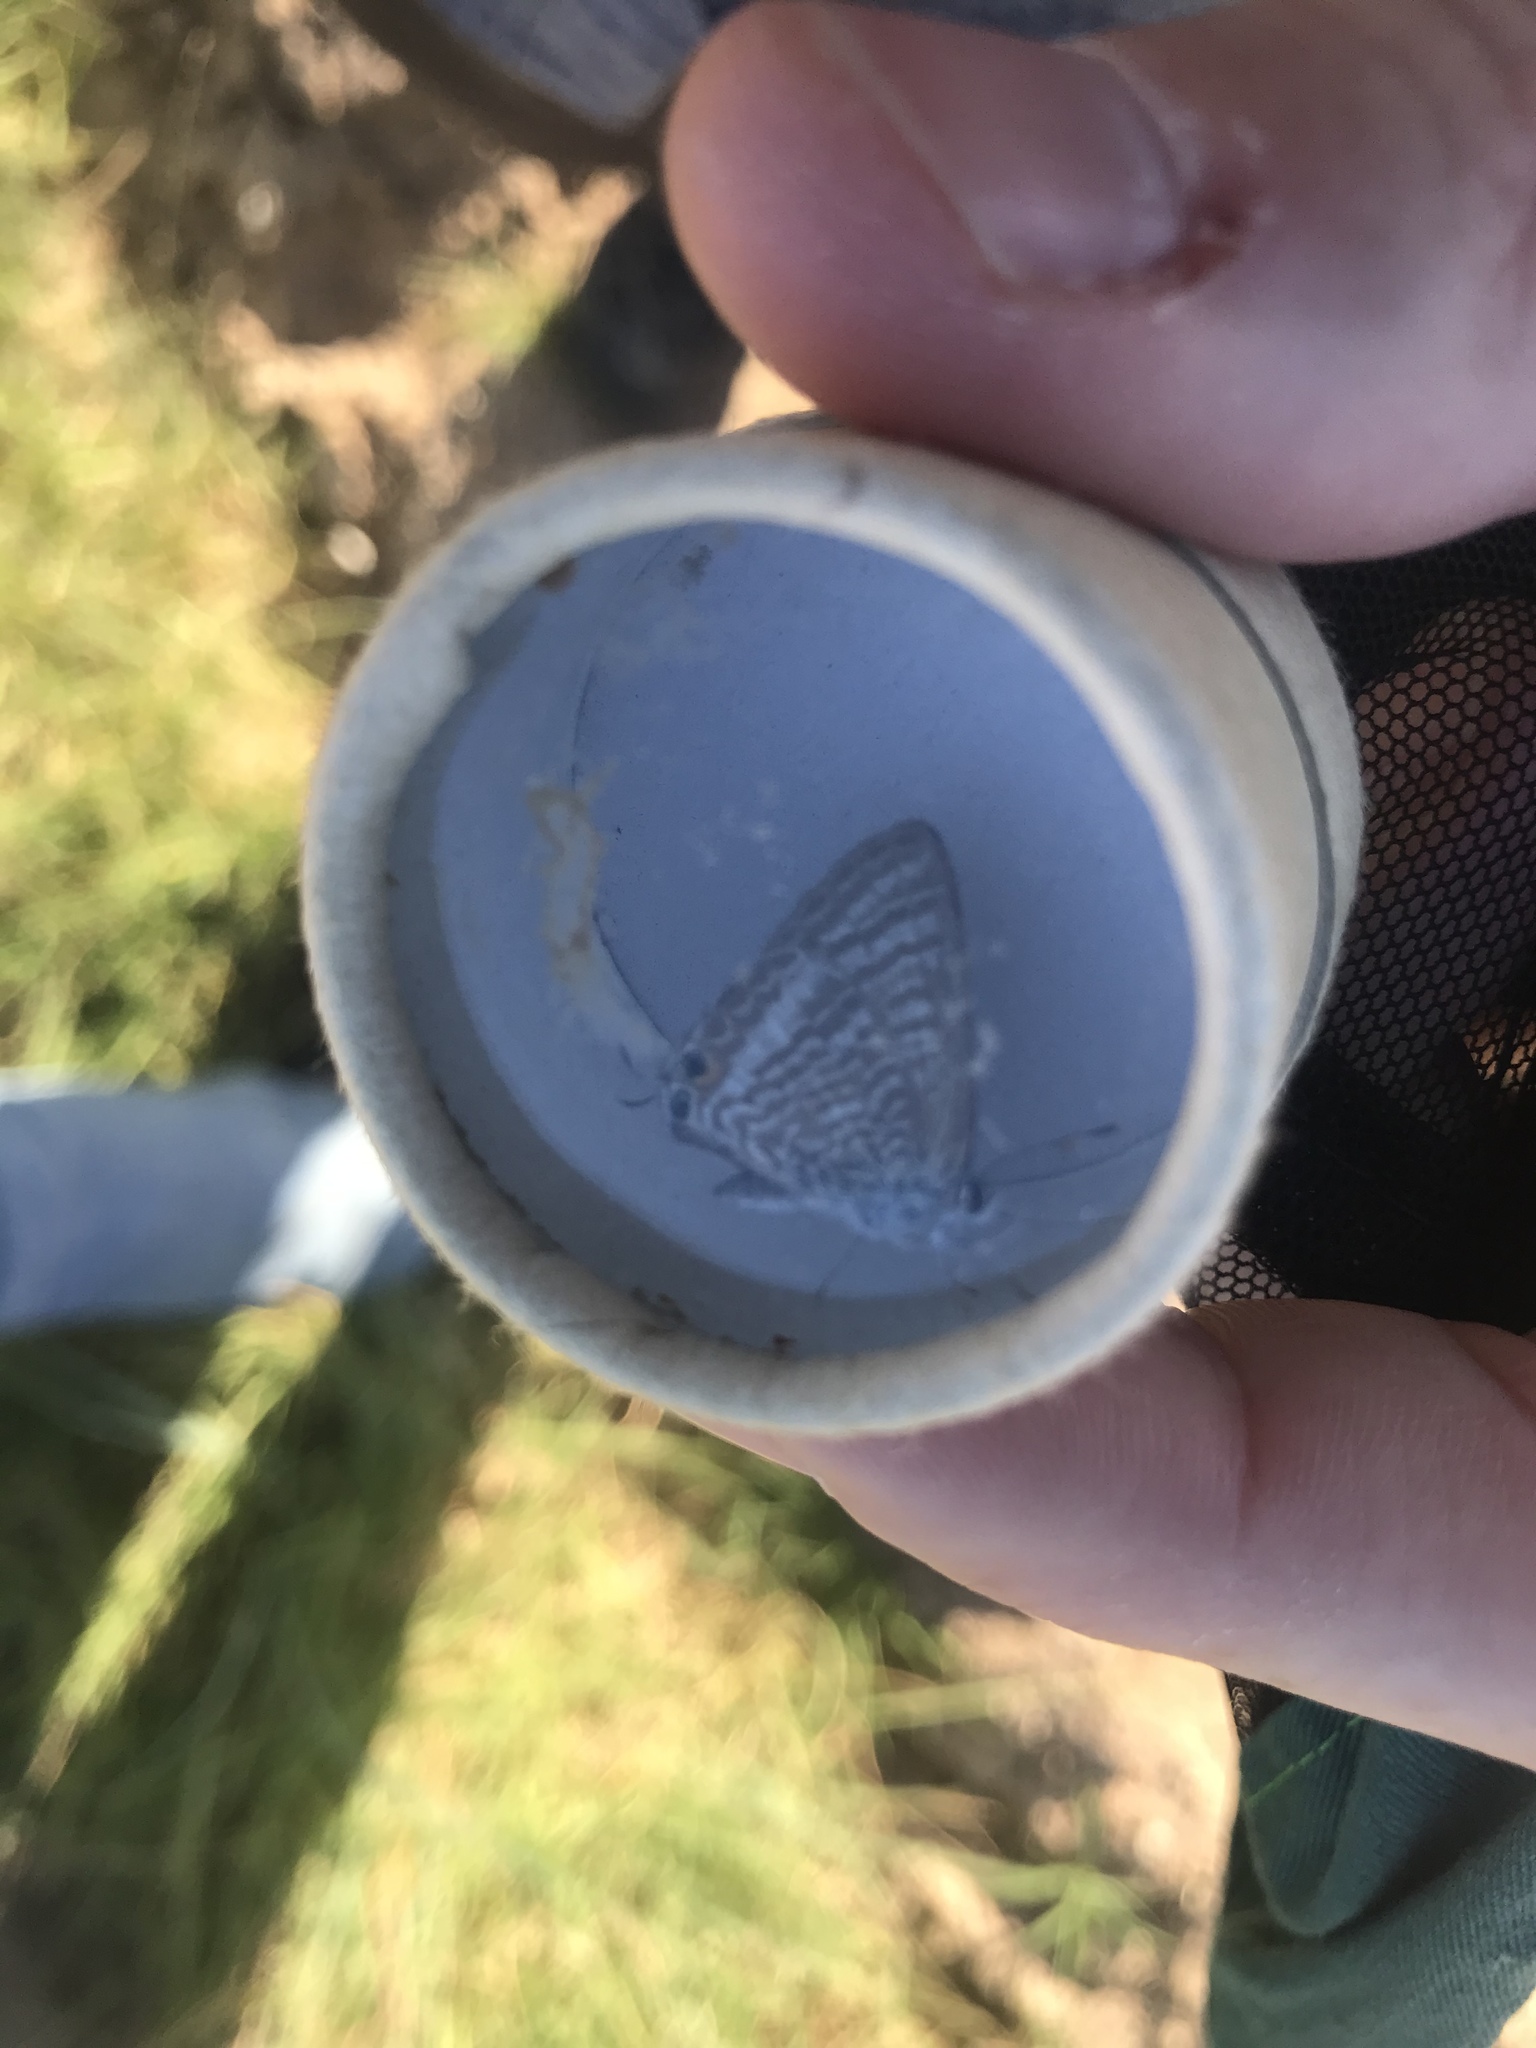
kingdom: Animalia
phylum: Arthropoda
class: Insecta
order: Lepidoptera
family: Lycaenidae
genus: Lampides
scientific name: Lampides boeticus
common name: Long-tailed blue
